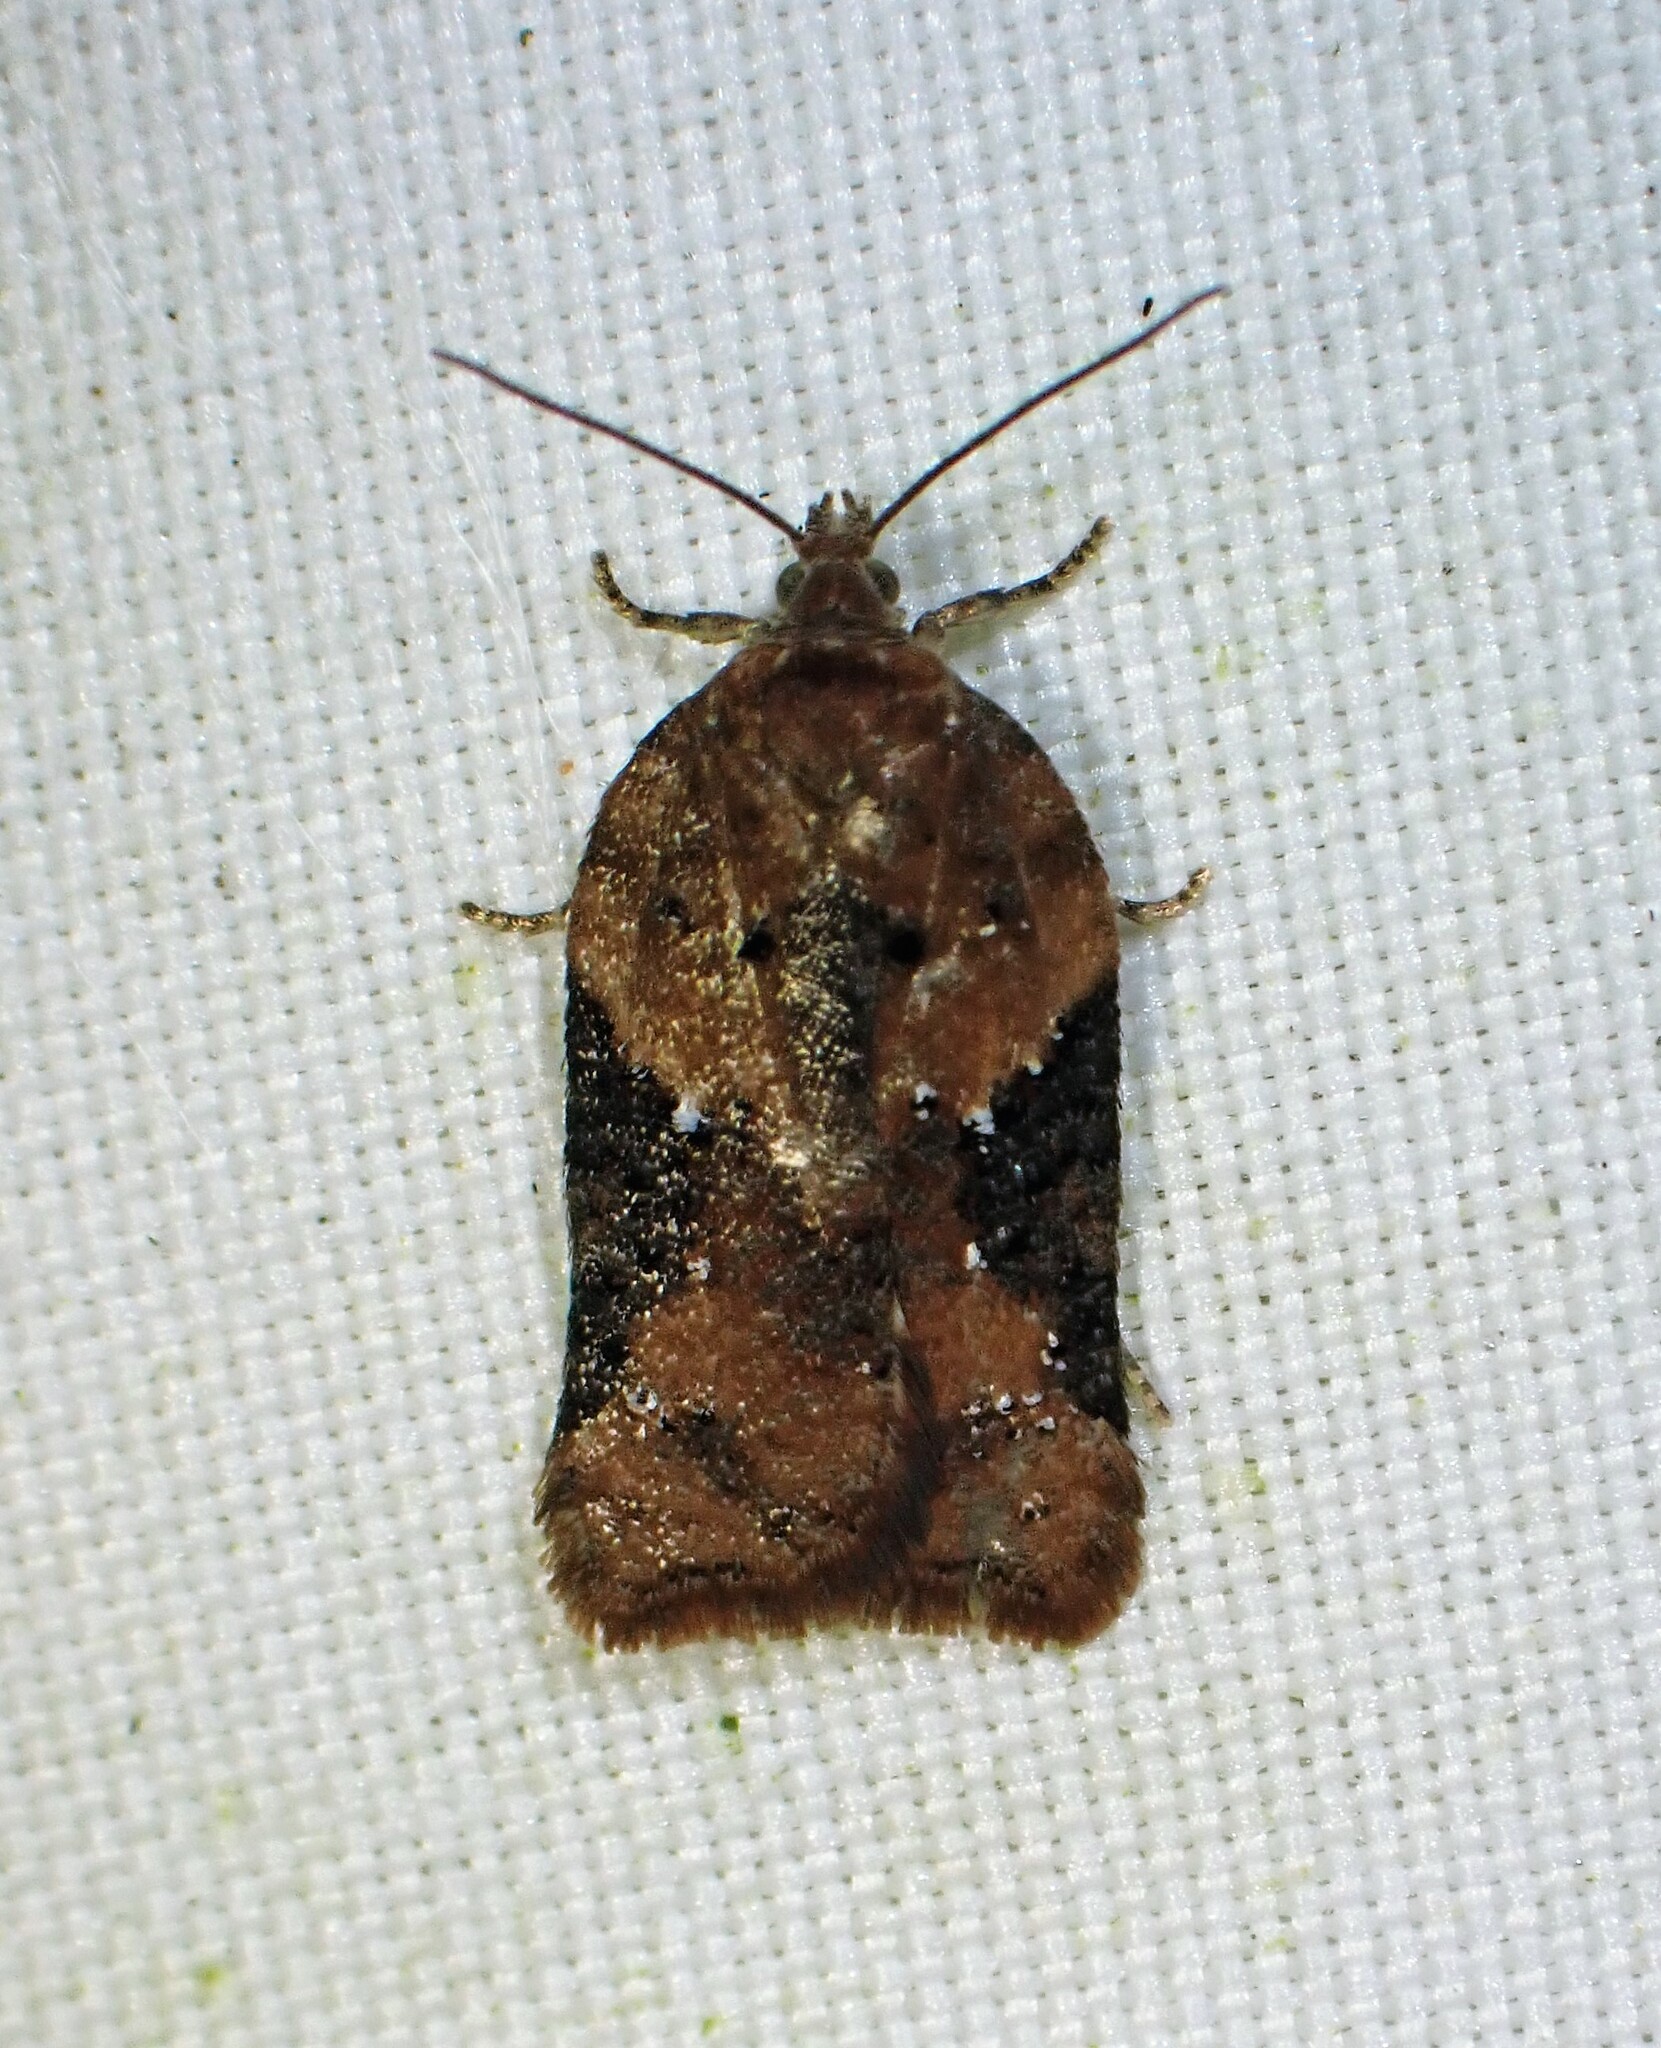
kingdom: Animalia
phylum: Arthropoda
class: Insecta
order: Lepidoptera
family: Tortricidae
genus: Acleris
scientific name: Acleris braunana
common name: Alder leafroller
